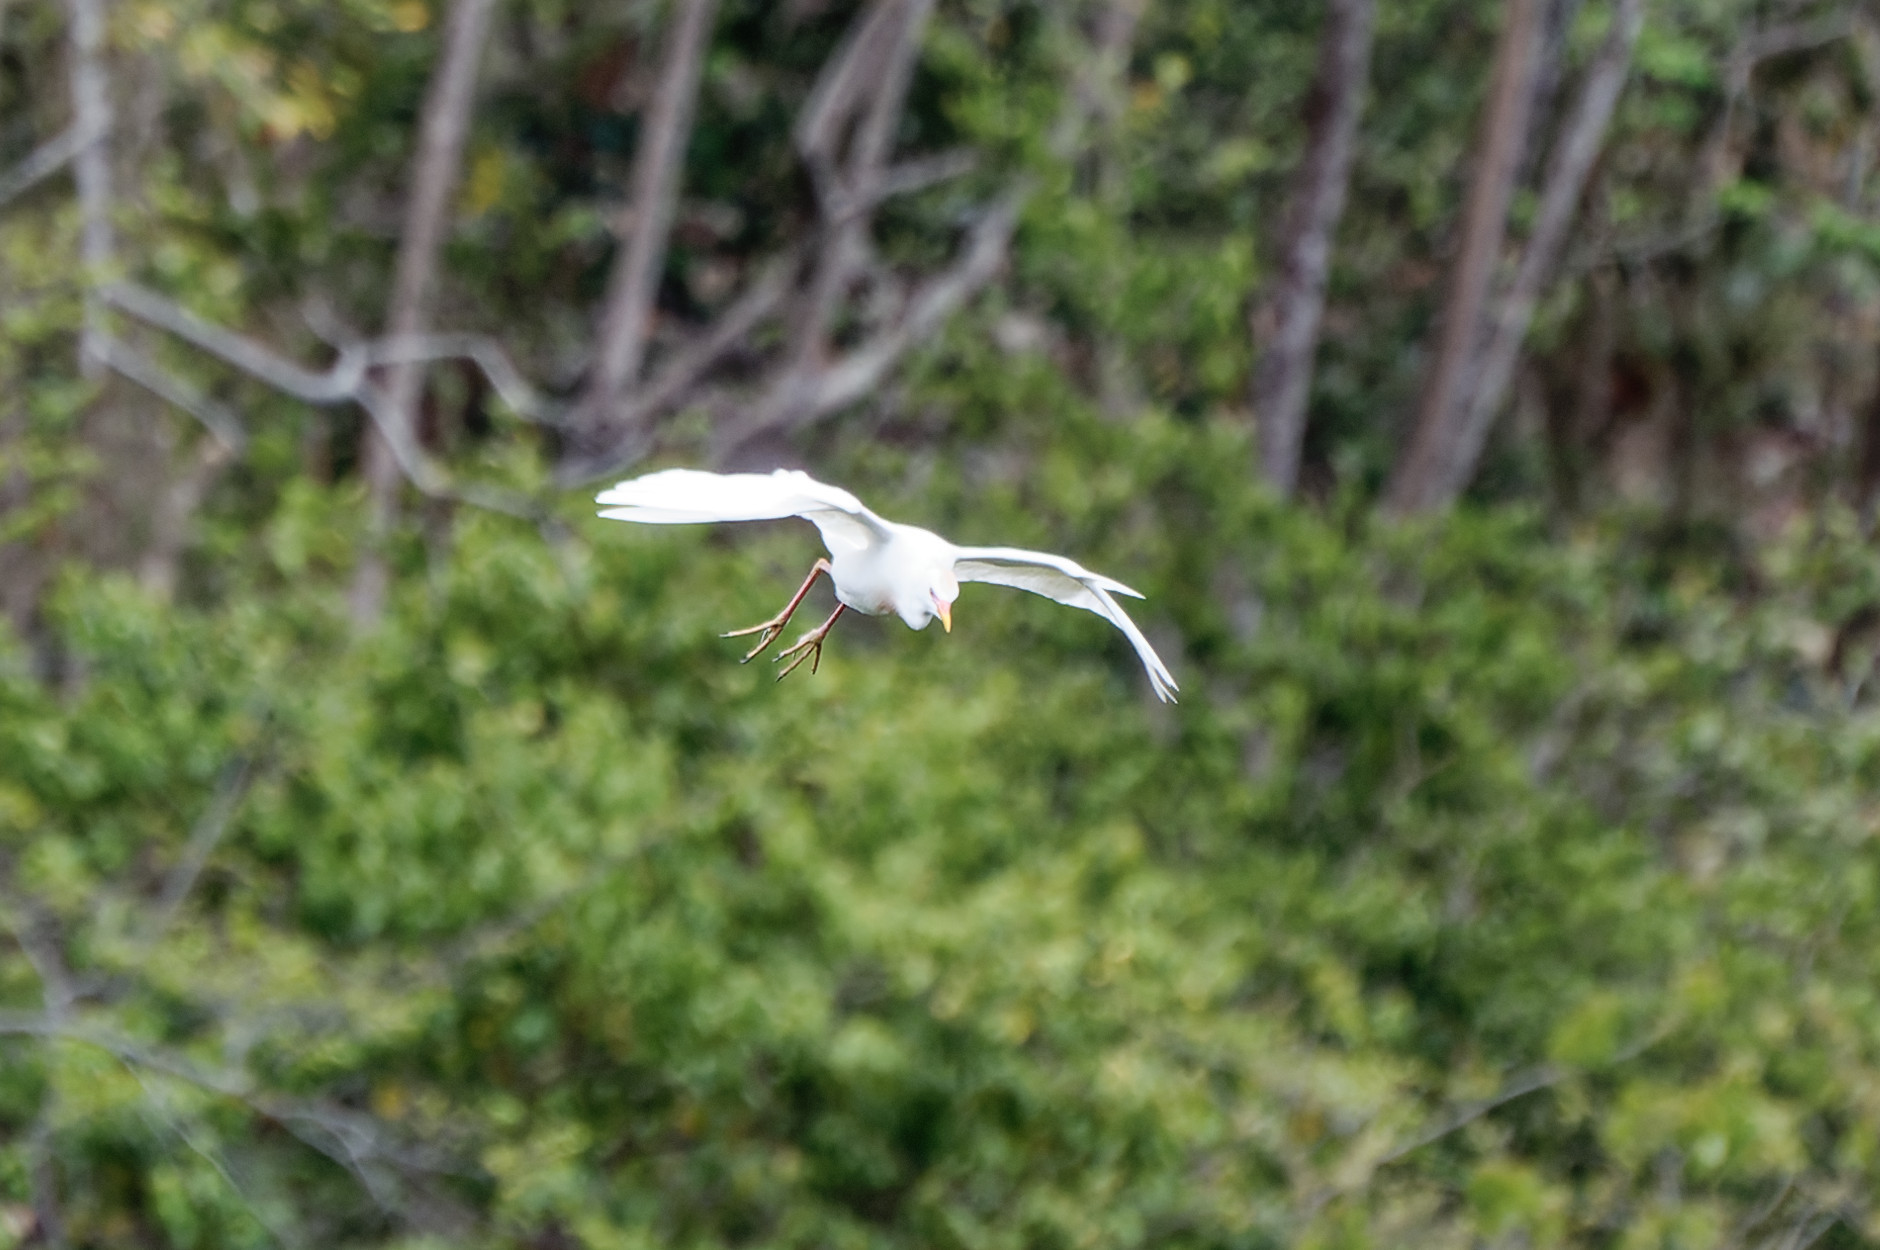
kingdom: Animalia
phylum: Chordata
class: Aves
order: Pelecaniformes
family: Ardeidae
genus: Bubulcus
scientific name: Bubulcus ibis
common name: Cattle egret
